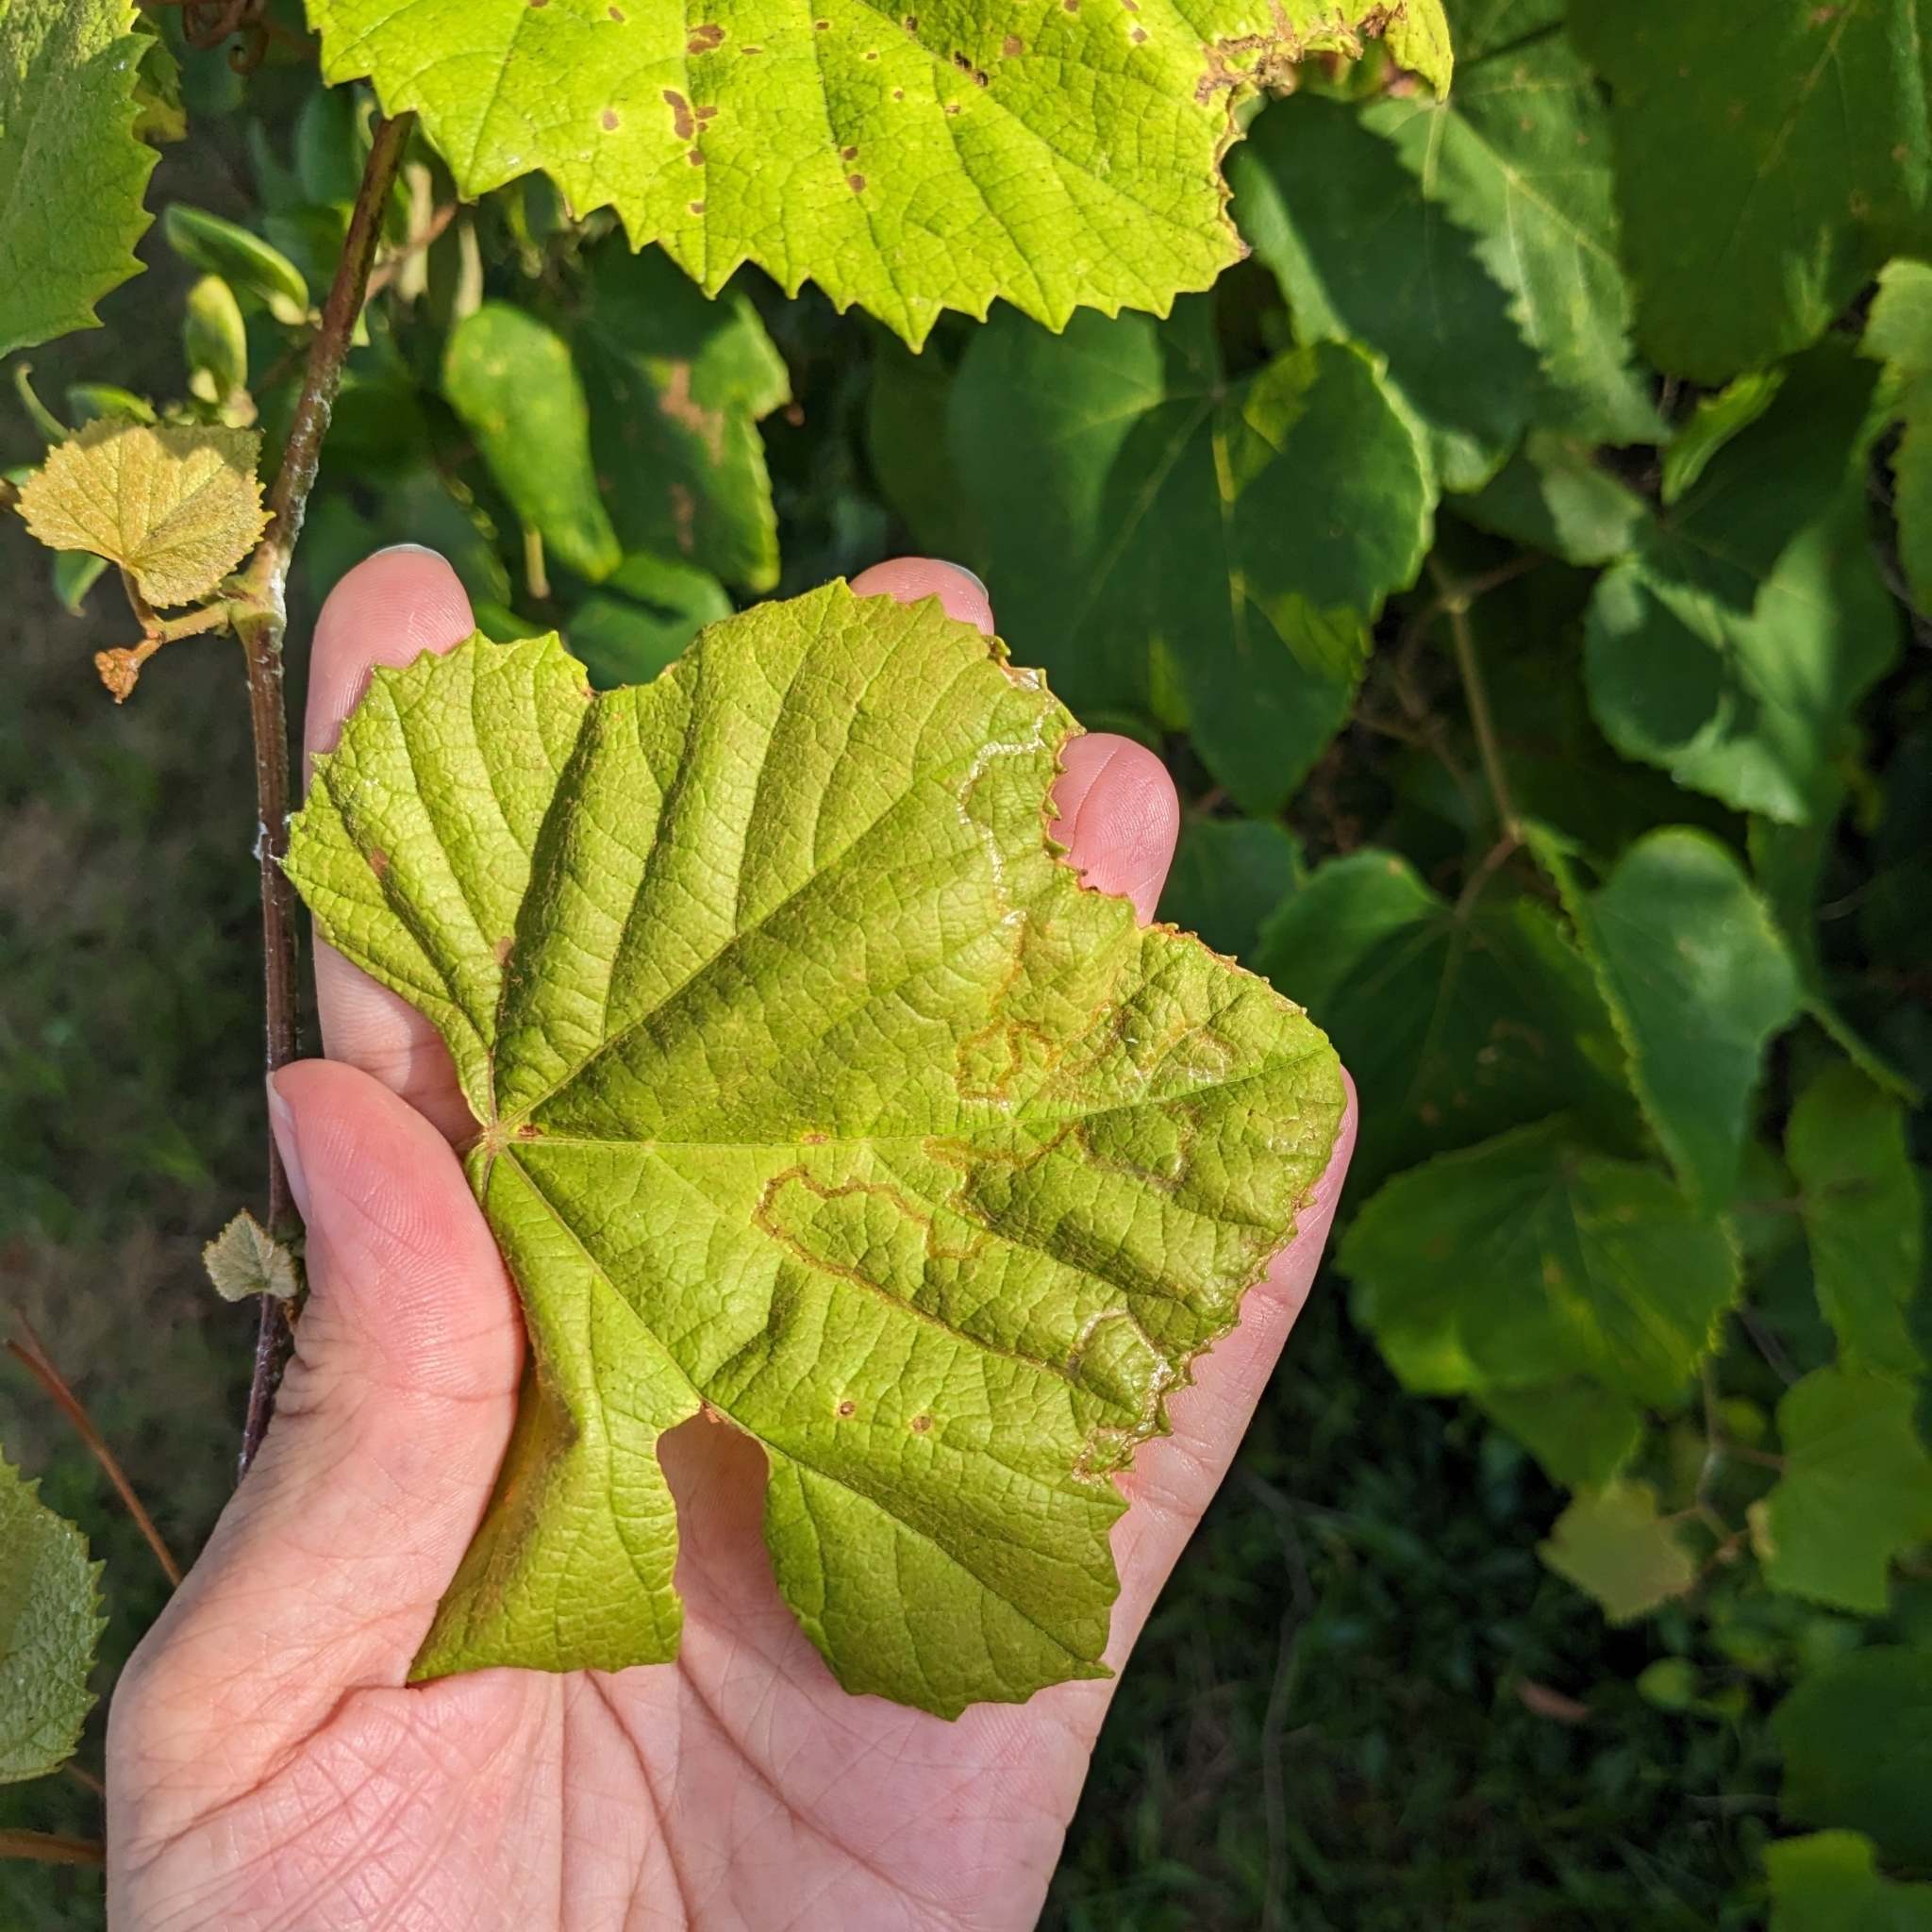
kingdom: Animalia
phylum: Arthropoda
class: Insecta
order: Lepidoptera
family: Gracillariidae
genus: Phyllocnistis
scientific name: Phyllocnistis vitegenella
